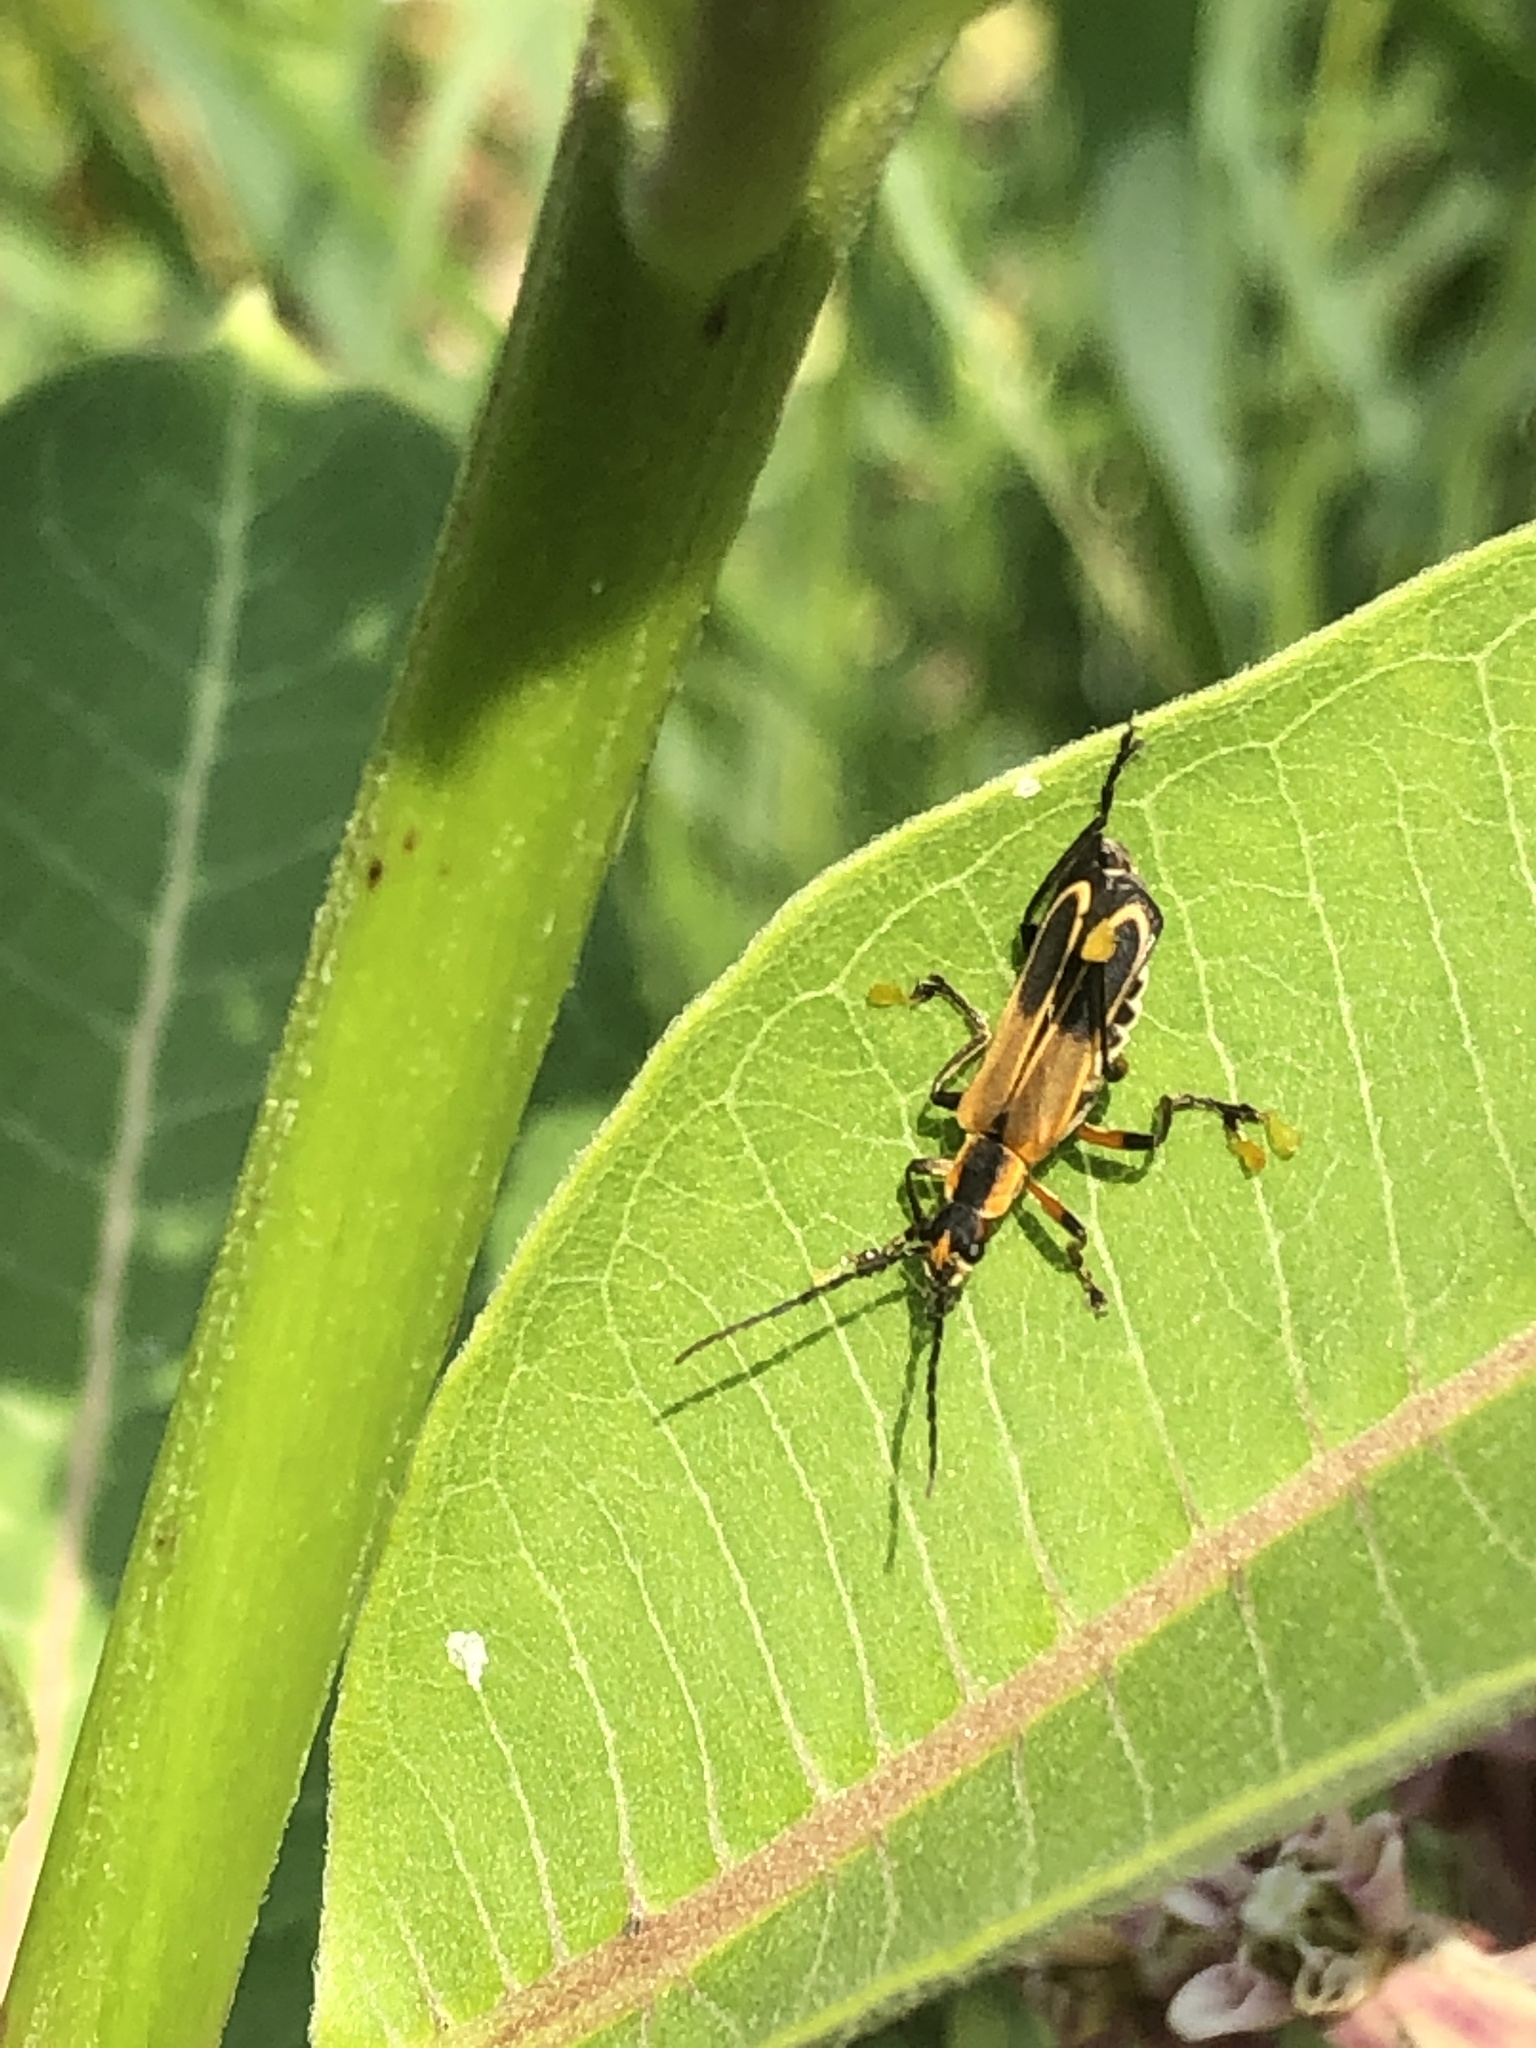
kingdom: Animalia
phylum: Arthropoda
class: Insecta
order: Coleoptera
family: Cantharidae
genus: Chauliognathus
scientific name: Chauliognathus marginatus
